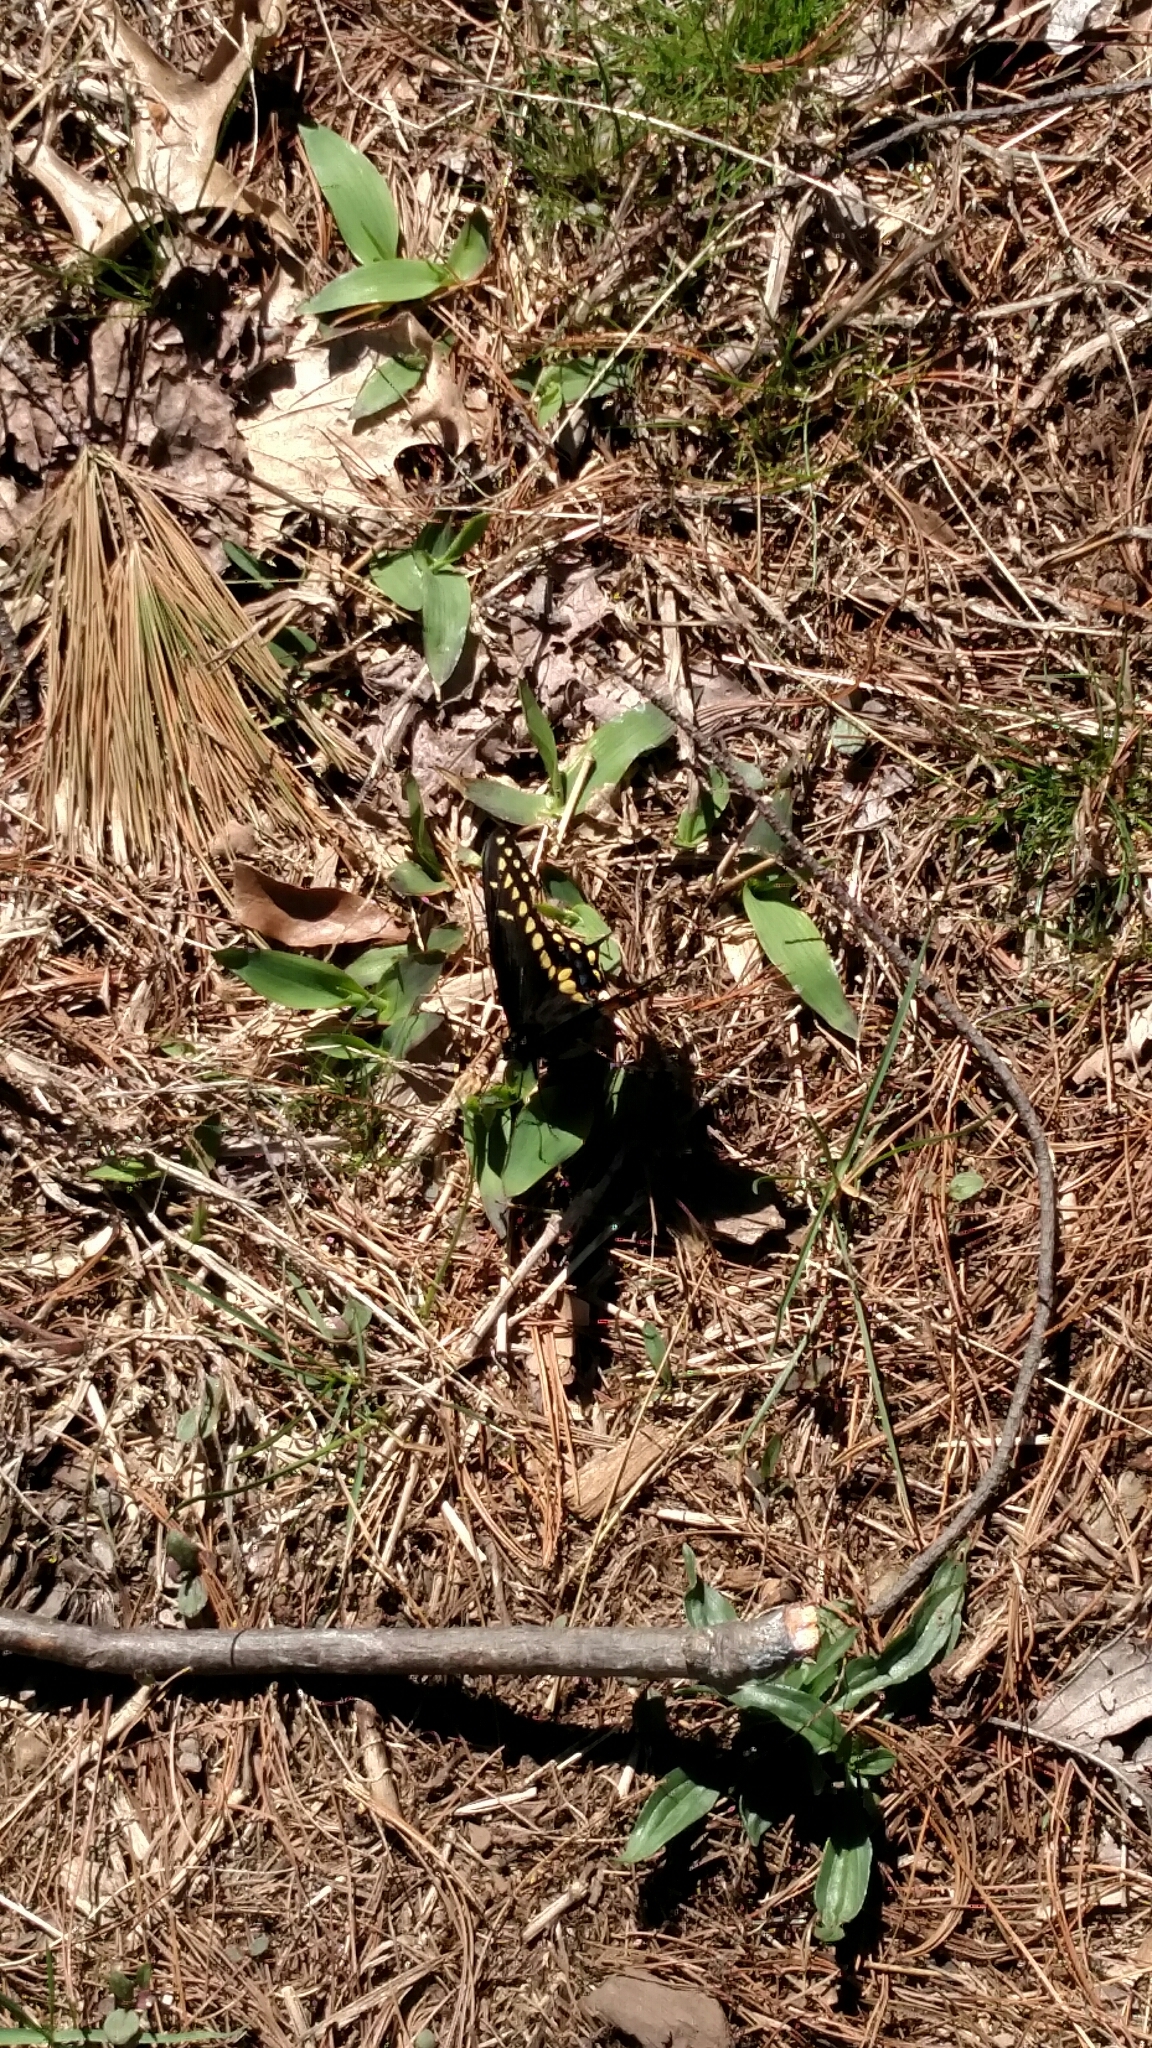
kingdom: Animalia
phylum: Arthropoda
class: Insecta
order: Lepidoptera
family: Papilionidae
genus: Papilio
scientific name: Papilio polyxenes
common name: Black swallowtail
